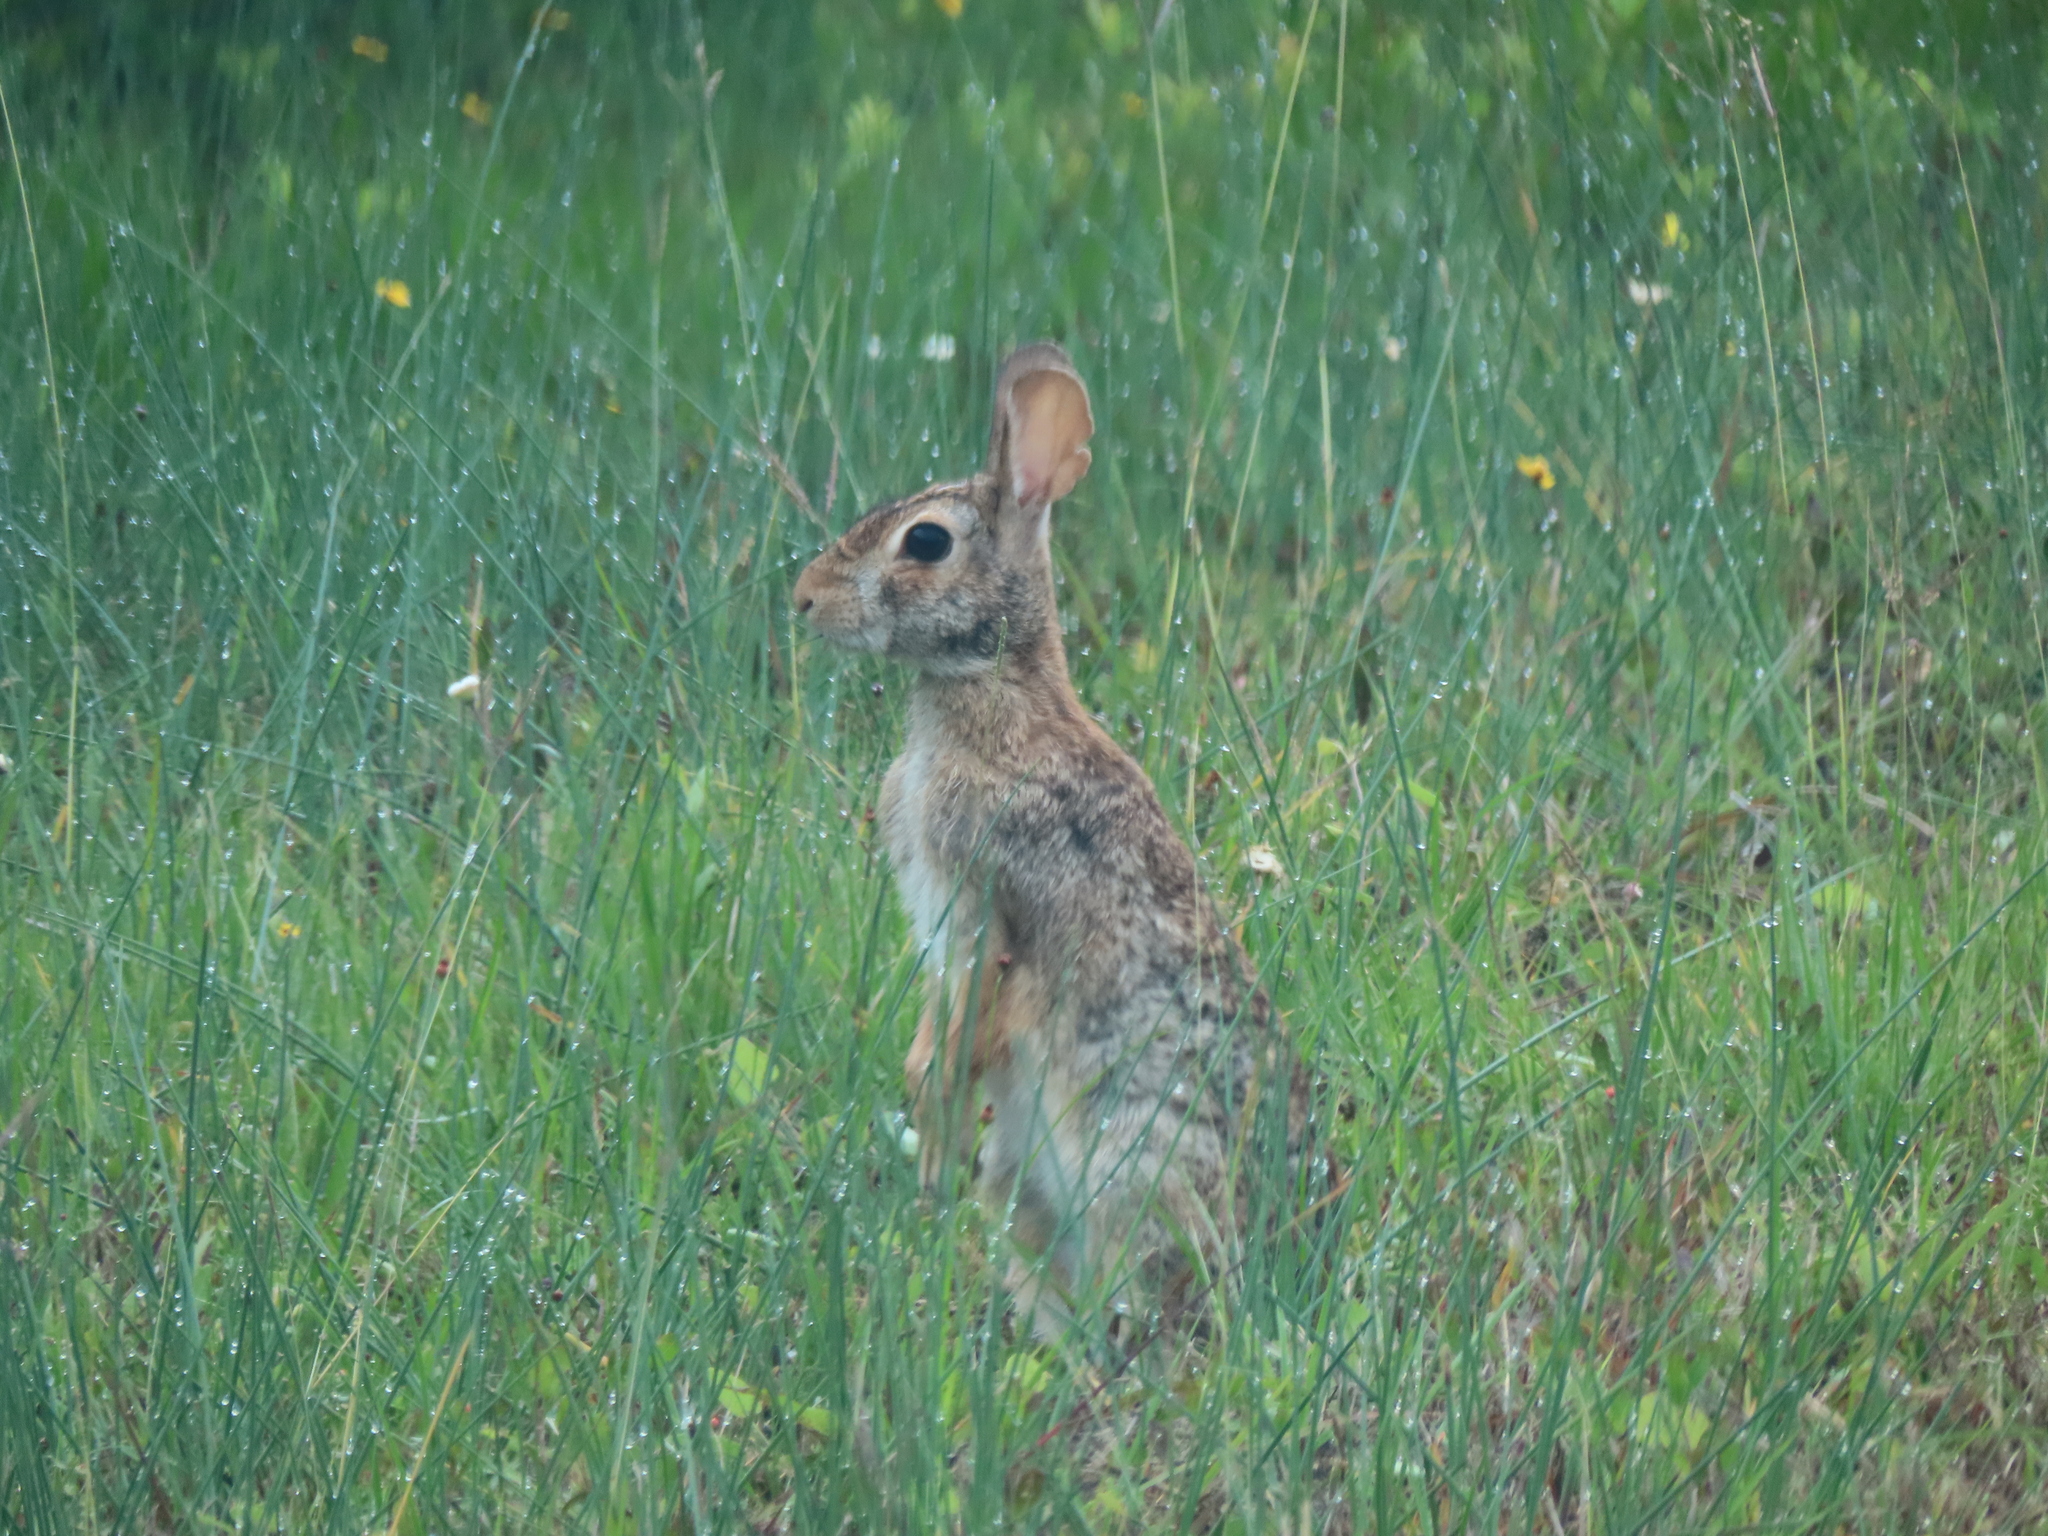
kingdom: Animalia
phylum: Chordata
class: Mammalia
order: Lagomorpha
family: Leporidae
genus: Sylvilagus
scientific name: Sylvilagus floridanus
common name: Eastern cottontail
